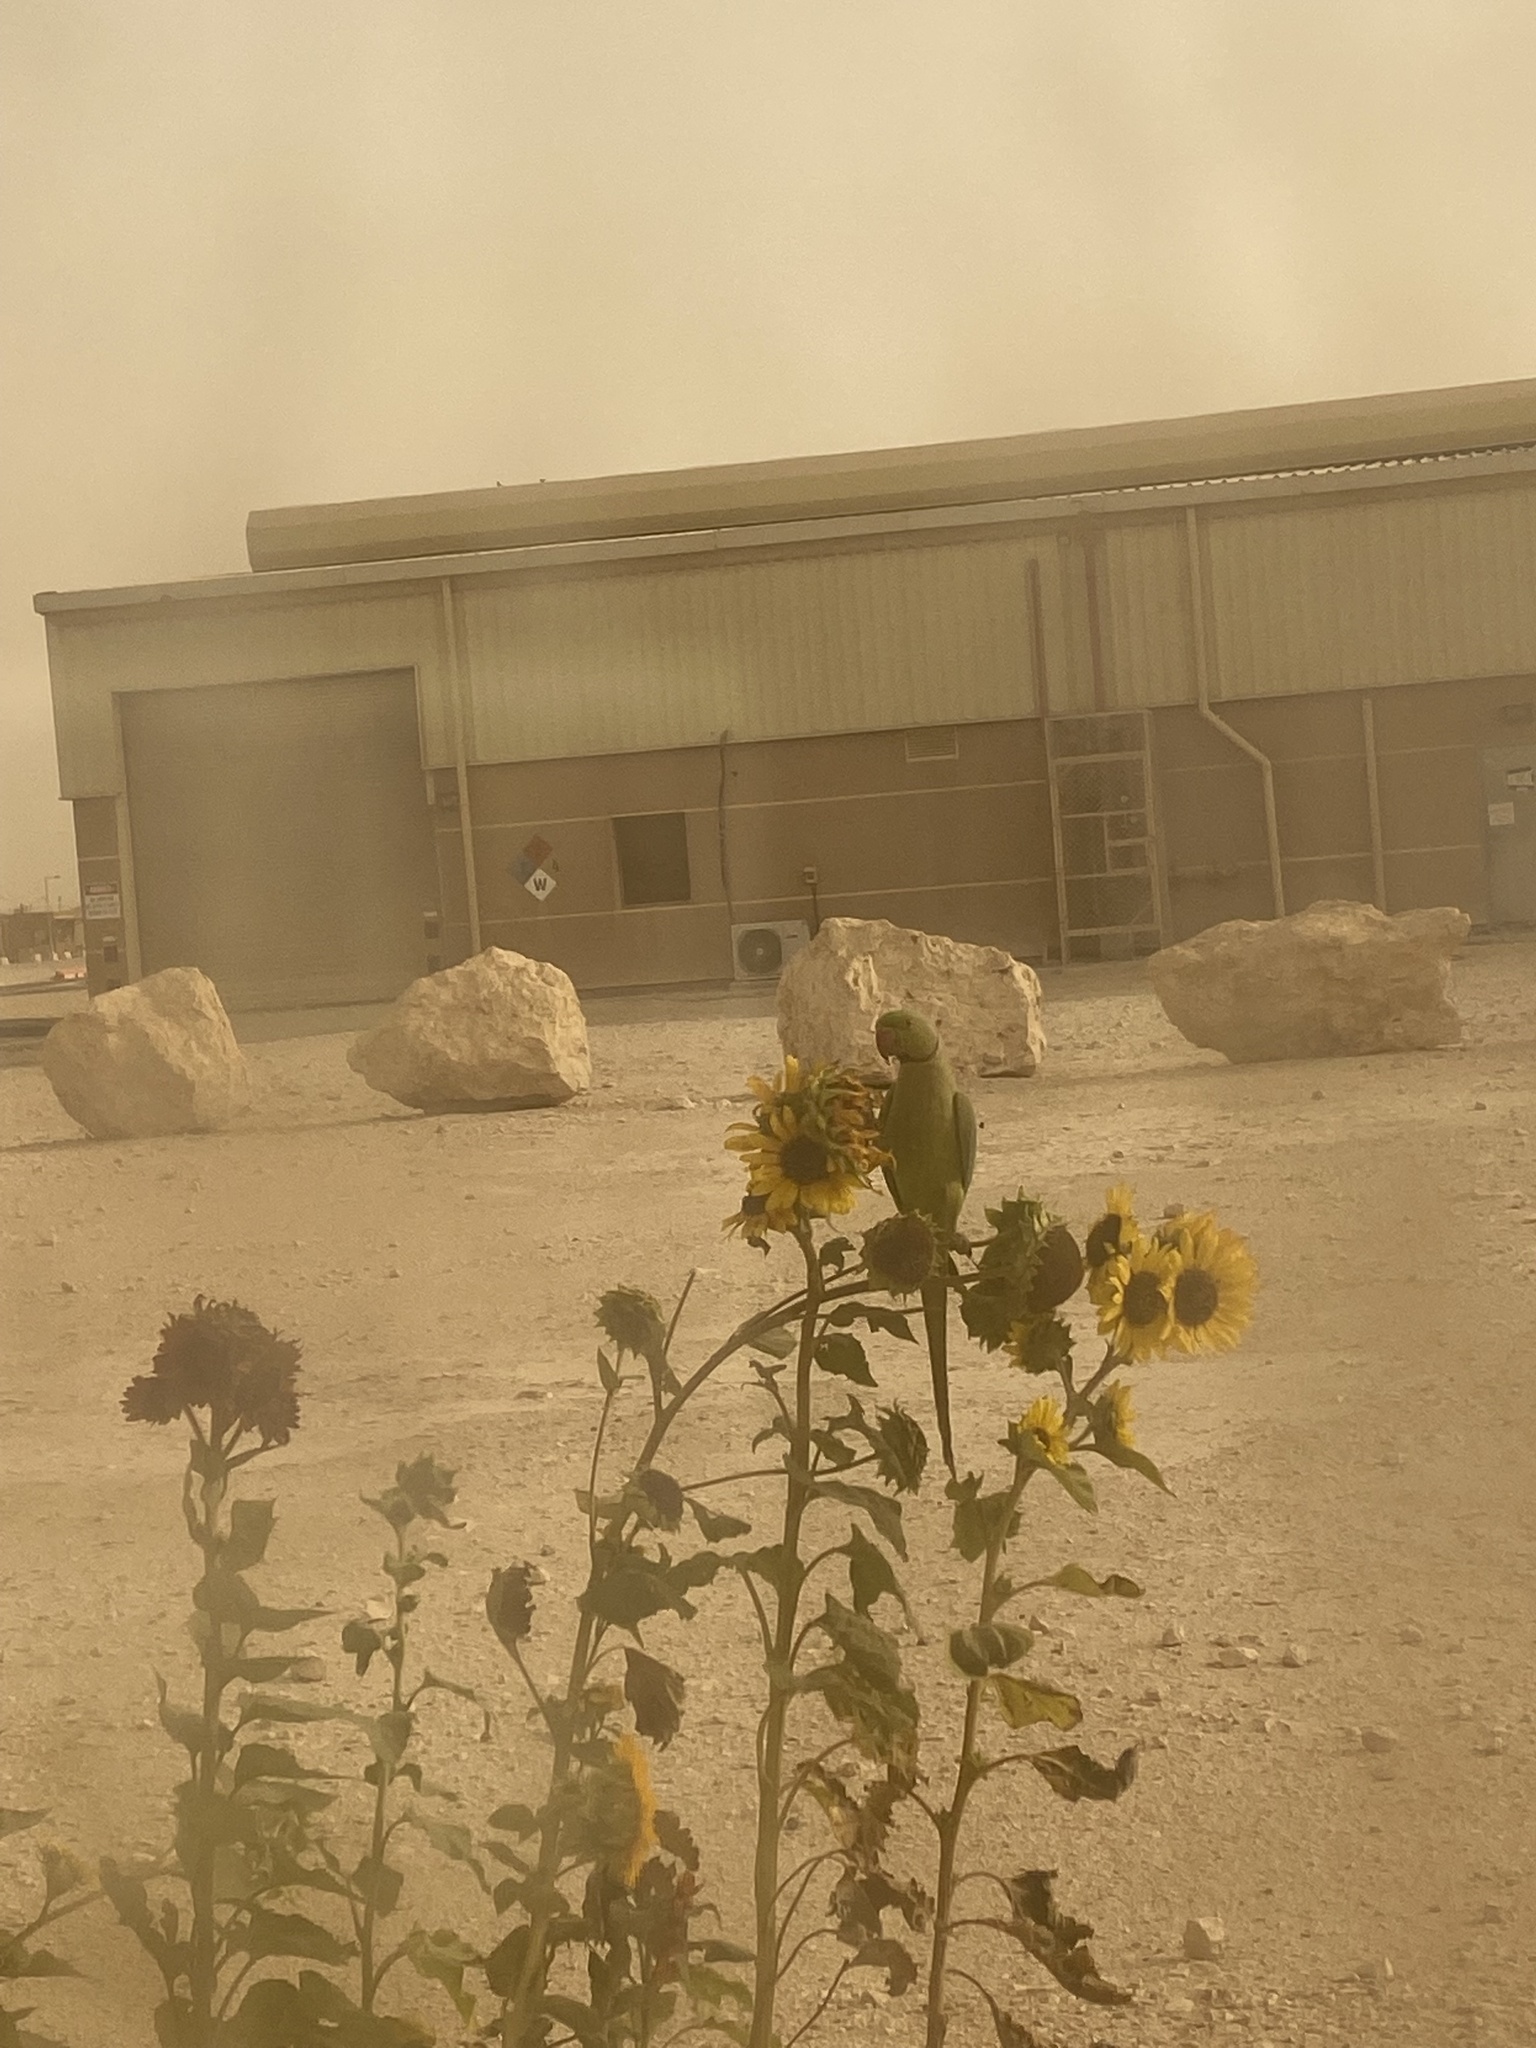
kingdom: Animalia
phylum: Chordata
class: Aves
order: Psittaciformes
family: Psittacidae
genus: Psittacula
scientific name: Psittacula krameri
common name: Rose-ringed parakeet
